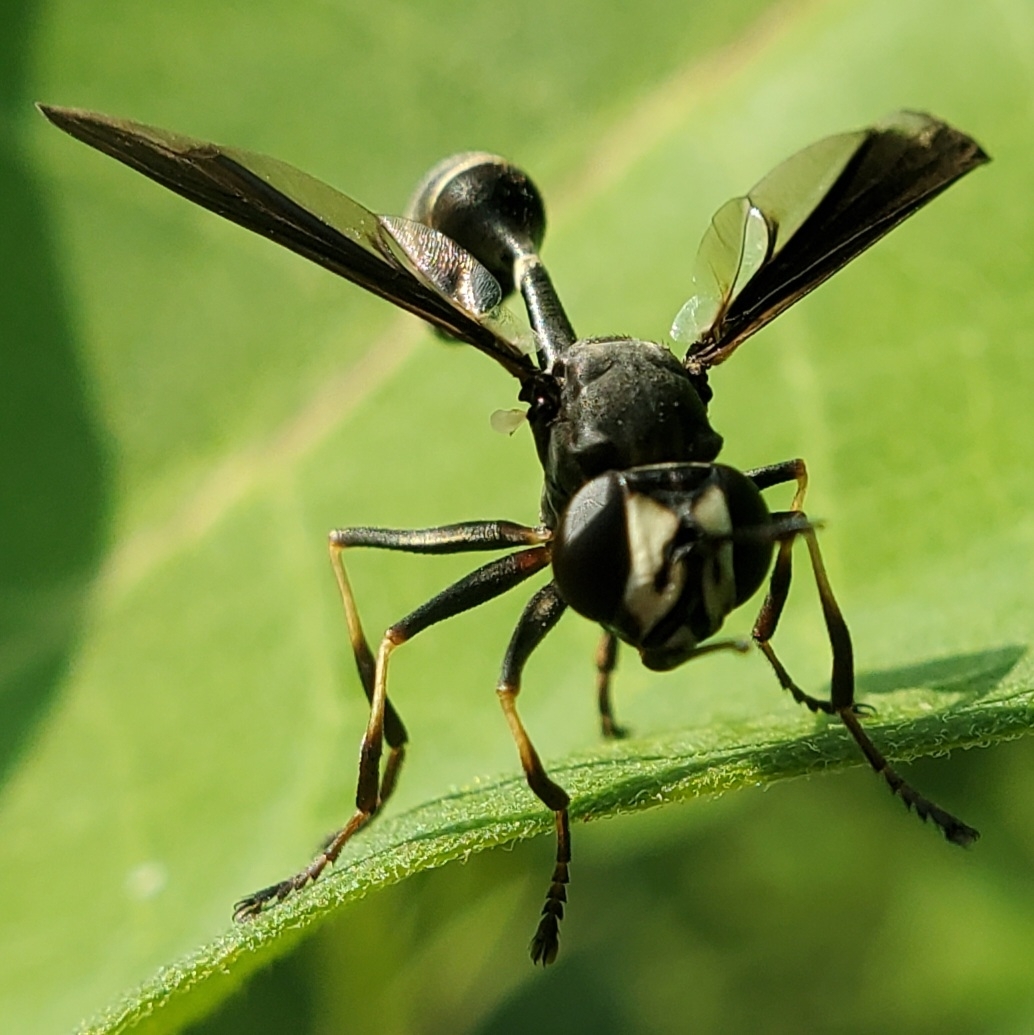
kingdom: Animalia
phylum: Arthropoda
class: Insecta
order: Diptera
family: Conopidae
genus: Physocephala
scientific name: Physocephala tibialis
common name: Common eastern physocephala
